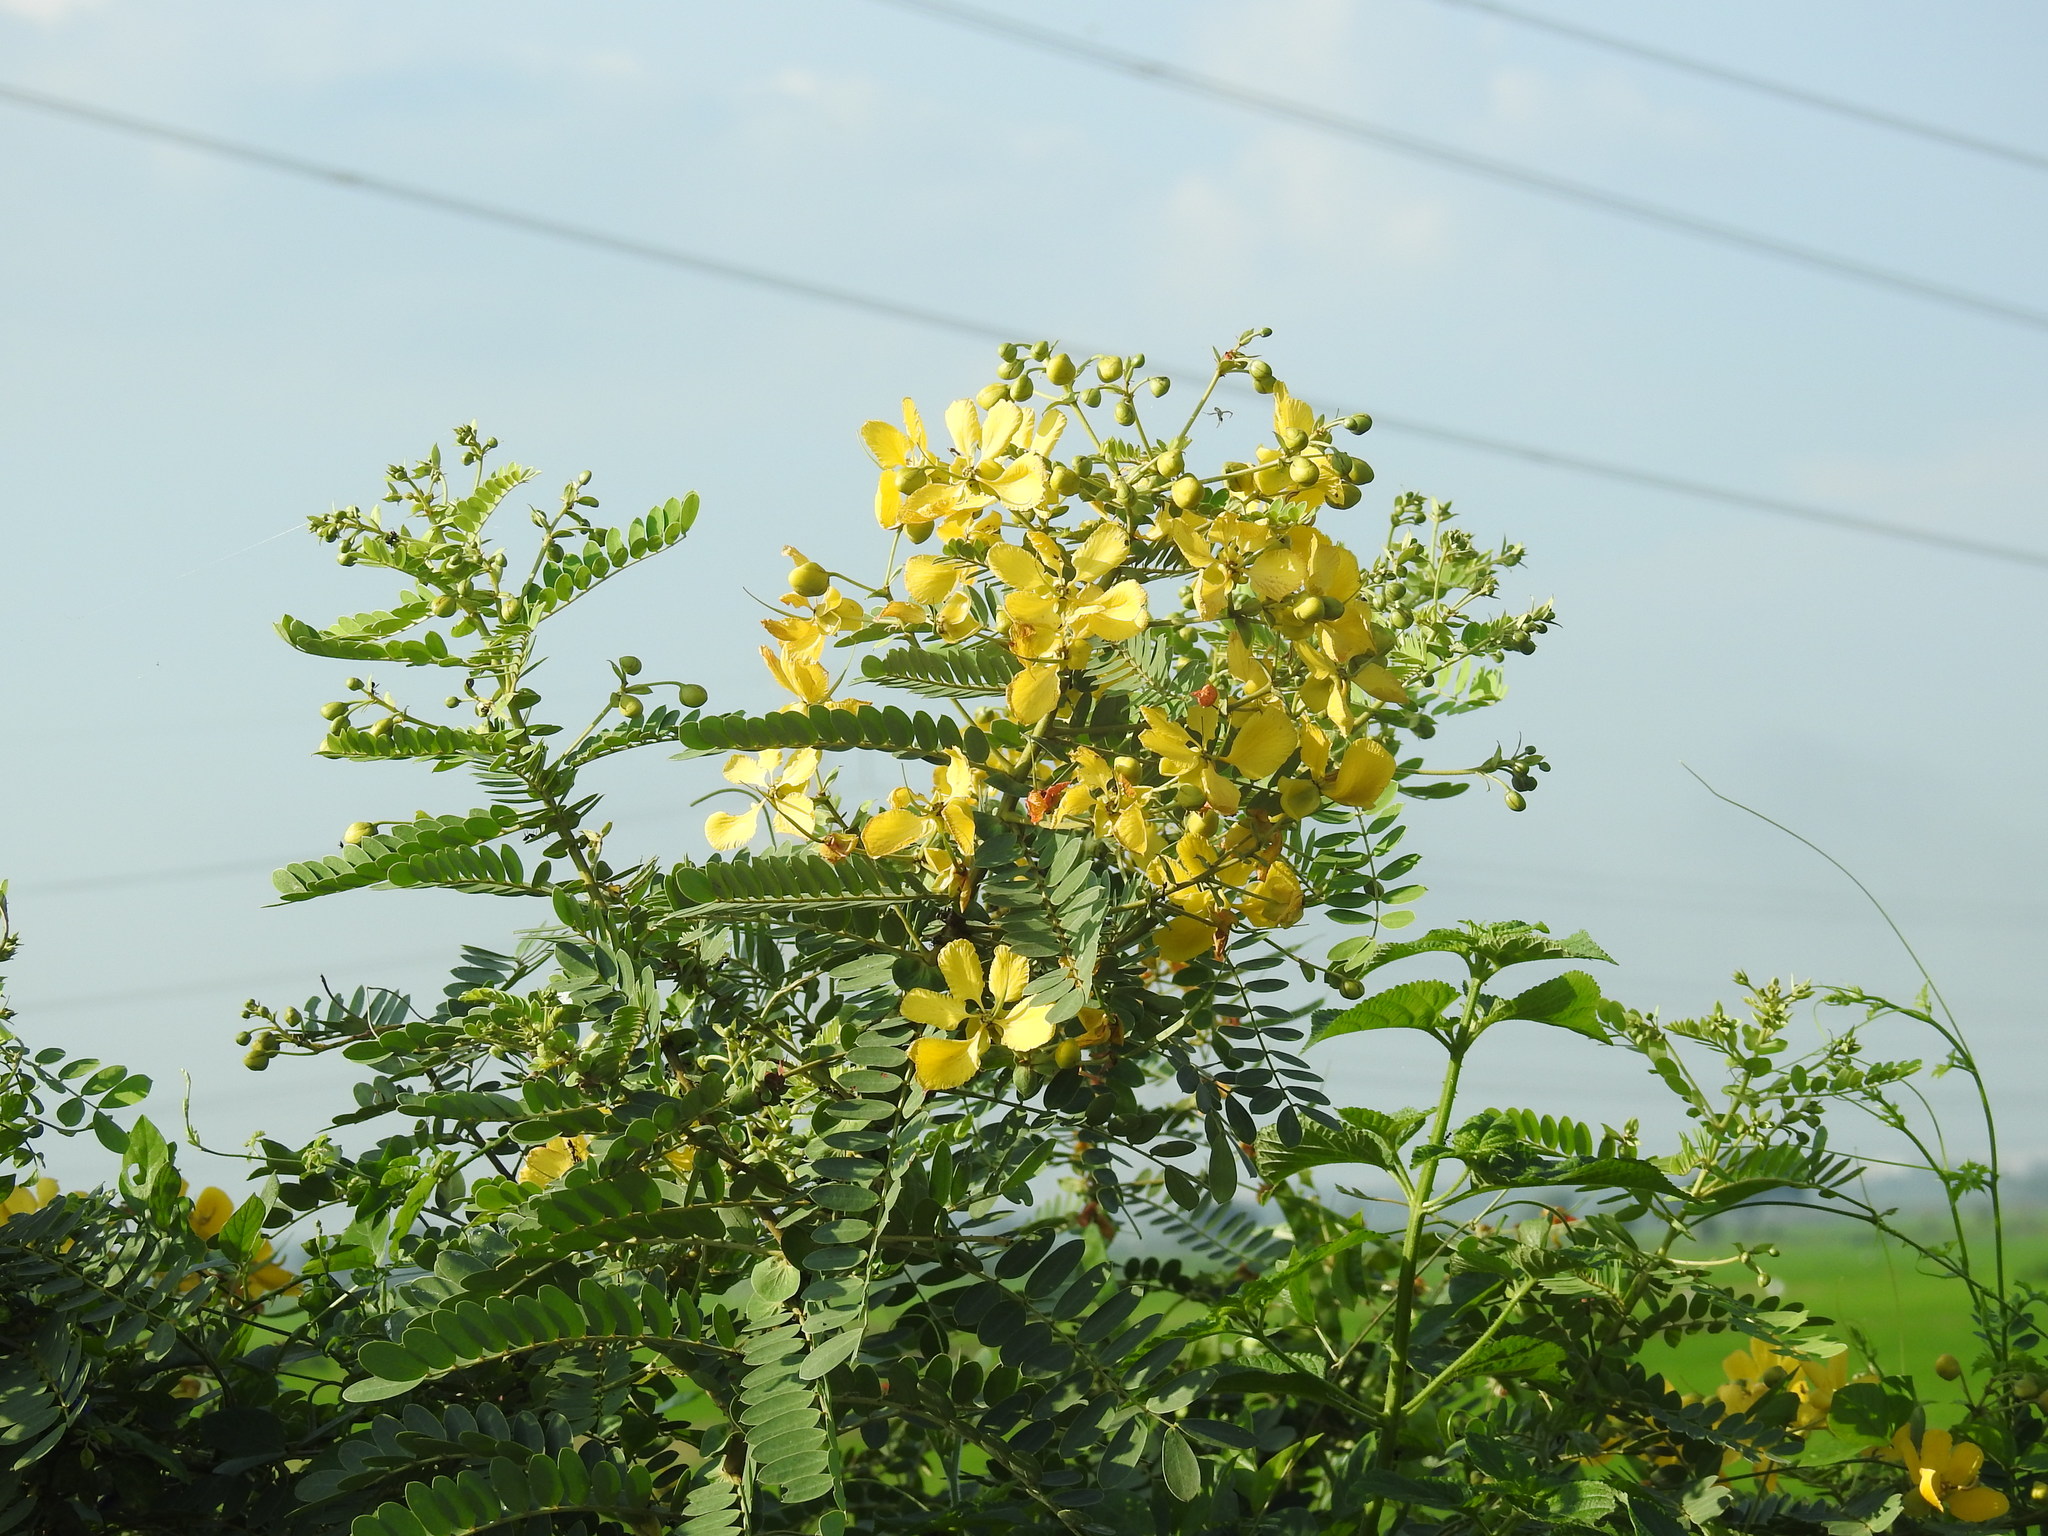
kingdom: Plantae
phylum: Tracheophyta
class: Magnoliopsida
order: Fabales
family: Fabaceae
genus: Senna
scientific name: Senna auriculata
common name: Tanner's cassia
